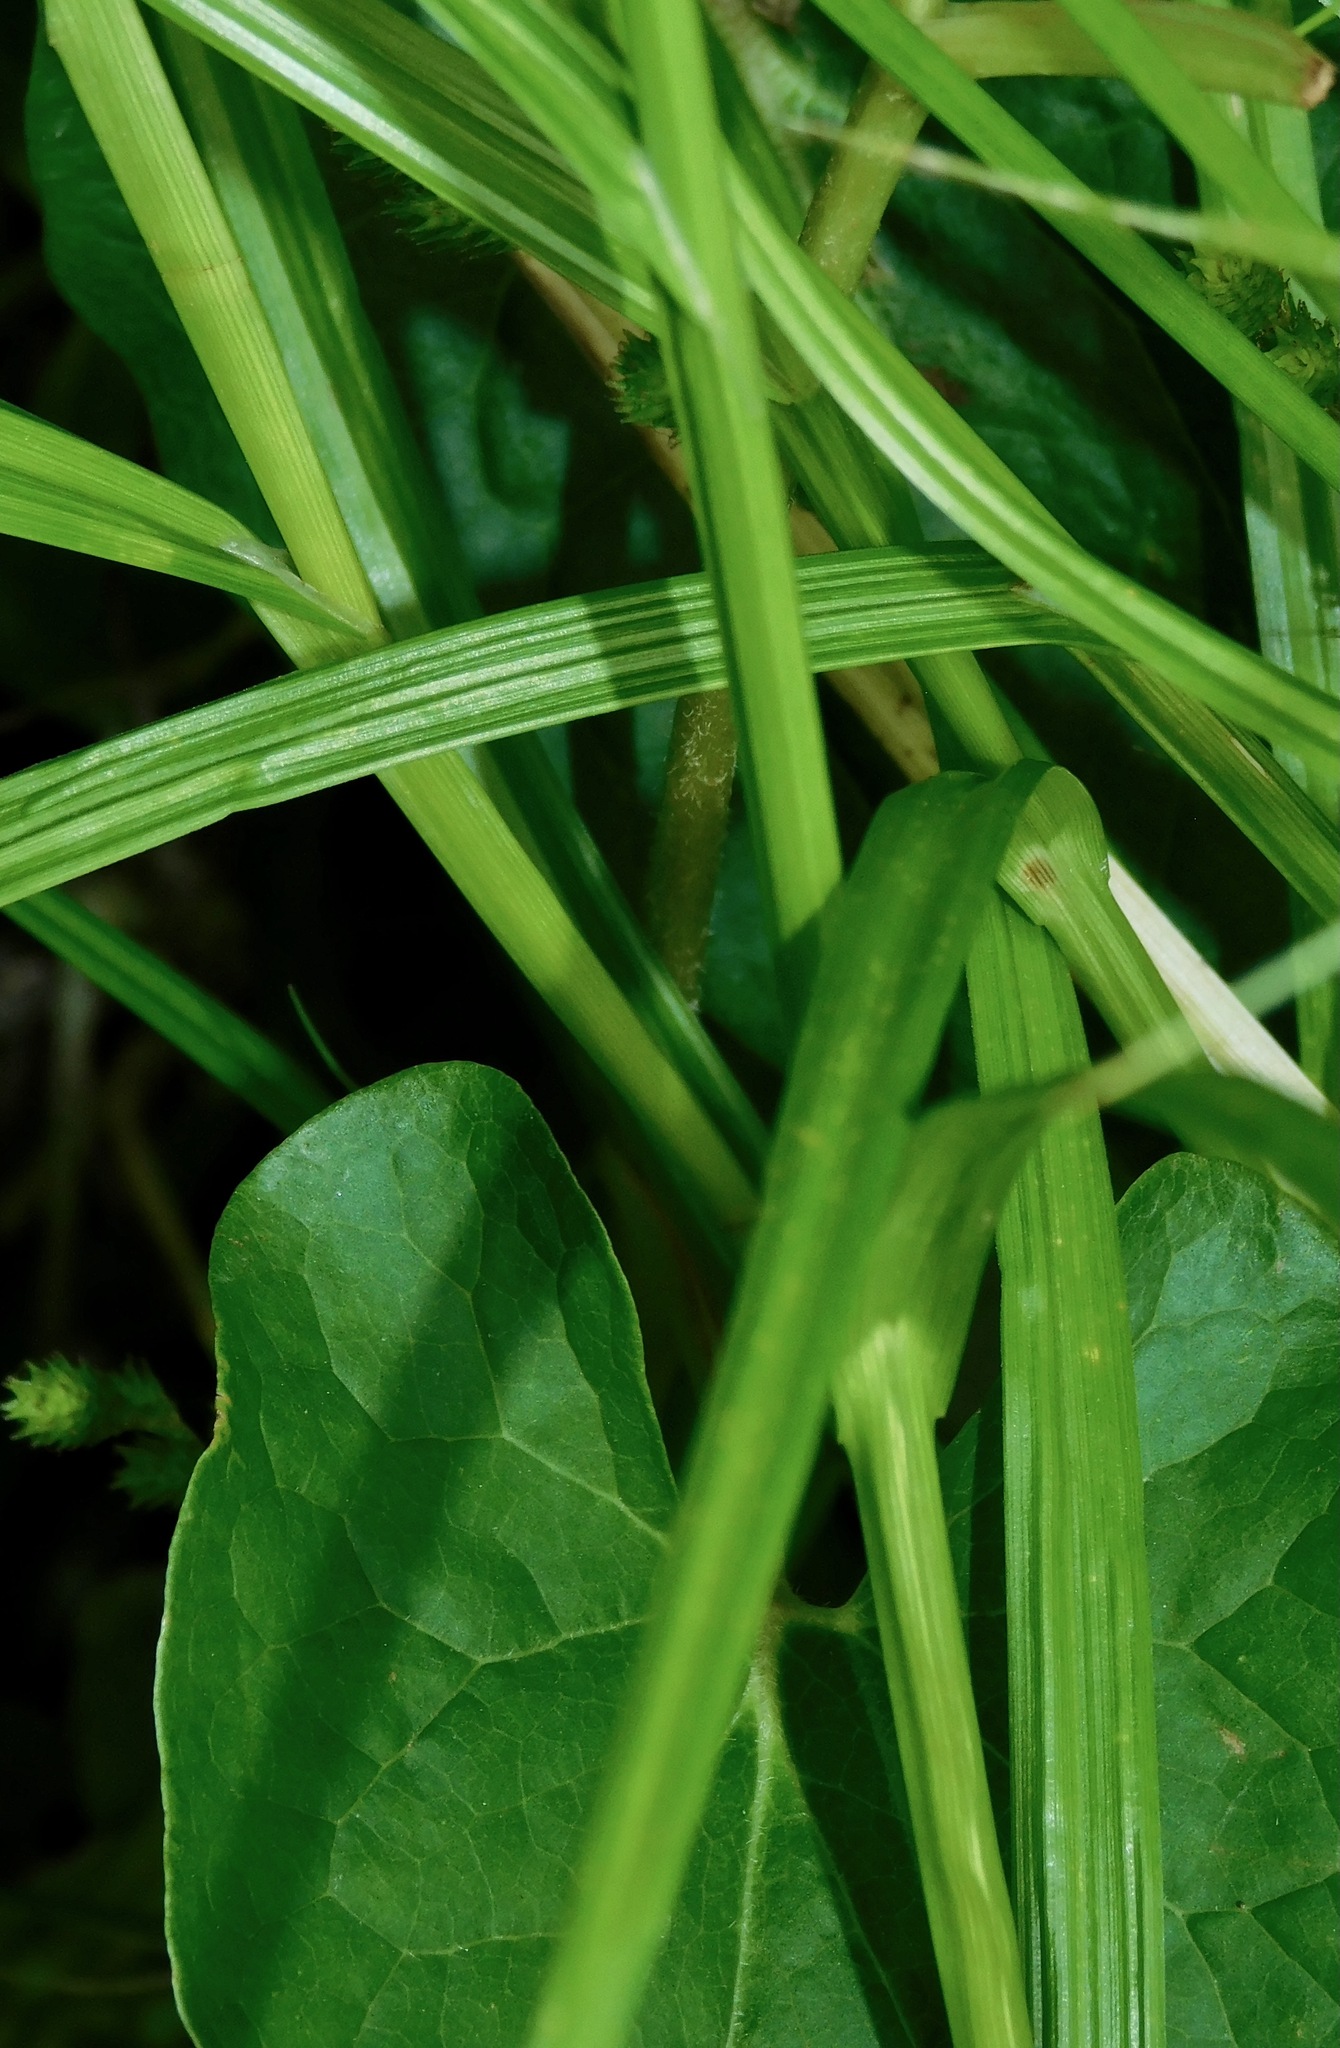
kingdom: Plantae
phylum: Tracheophyta
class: Liliopsida
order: Poales
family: Cyperaceae
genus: Carex
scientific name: Carex tribuloides
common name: Blunt broom sedge
